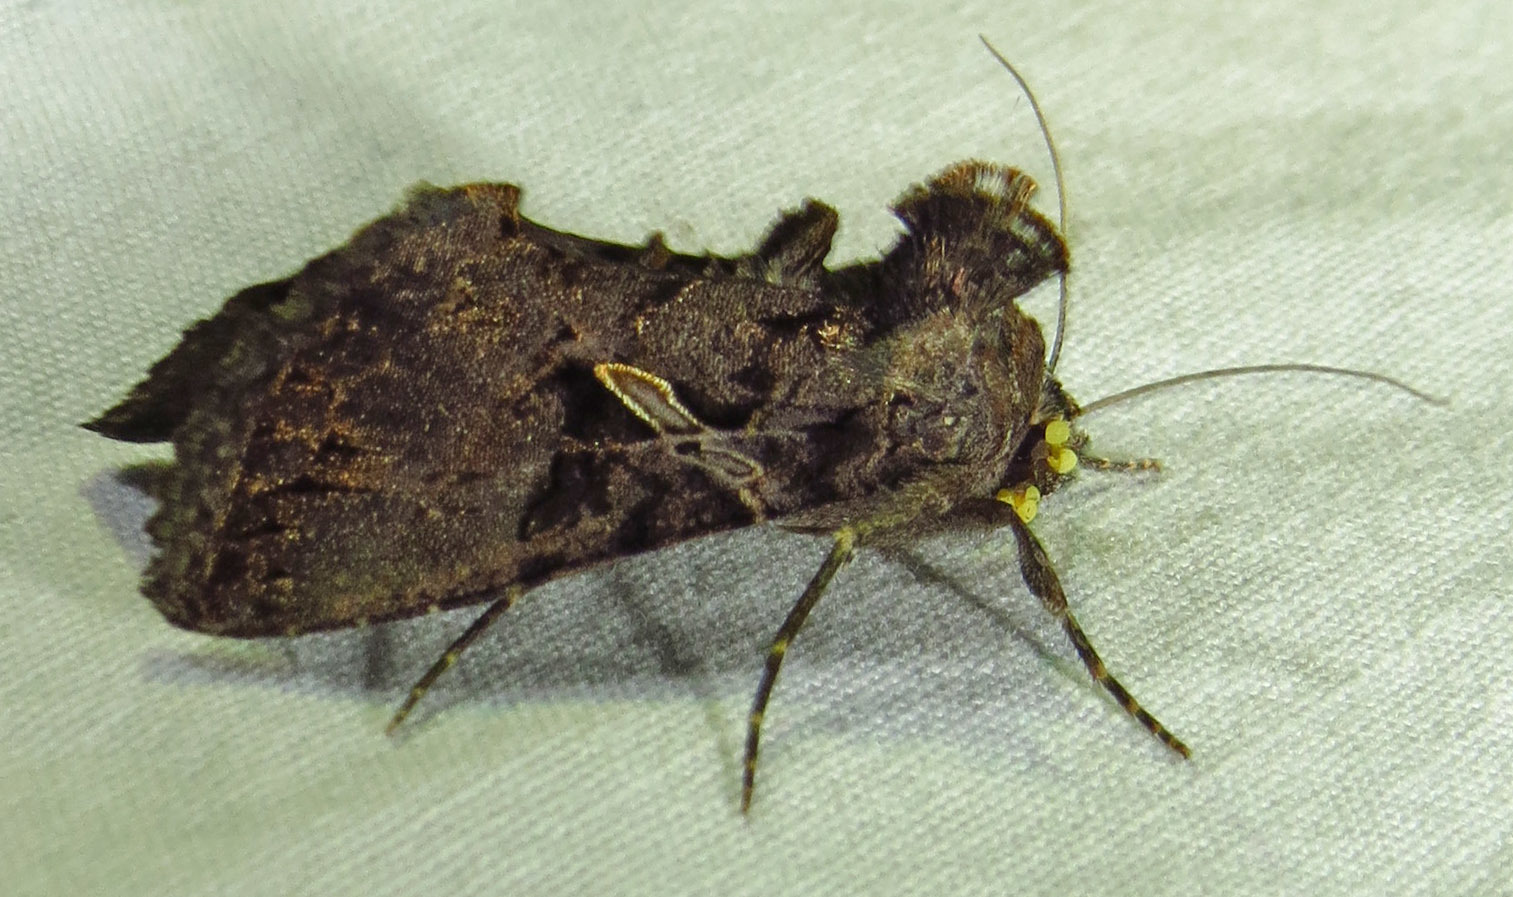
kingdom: Animalia
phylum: Arthropoda
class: Insecta
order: Lepidoptera
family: Noctuidae
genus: Ctenoplusia
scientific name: Ctenoplusia oxygramma
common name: Sharp-stigma looper moth
